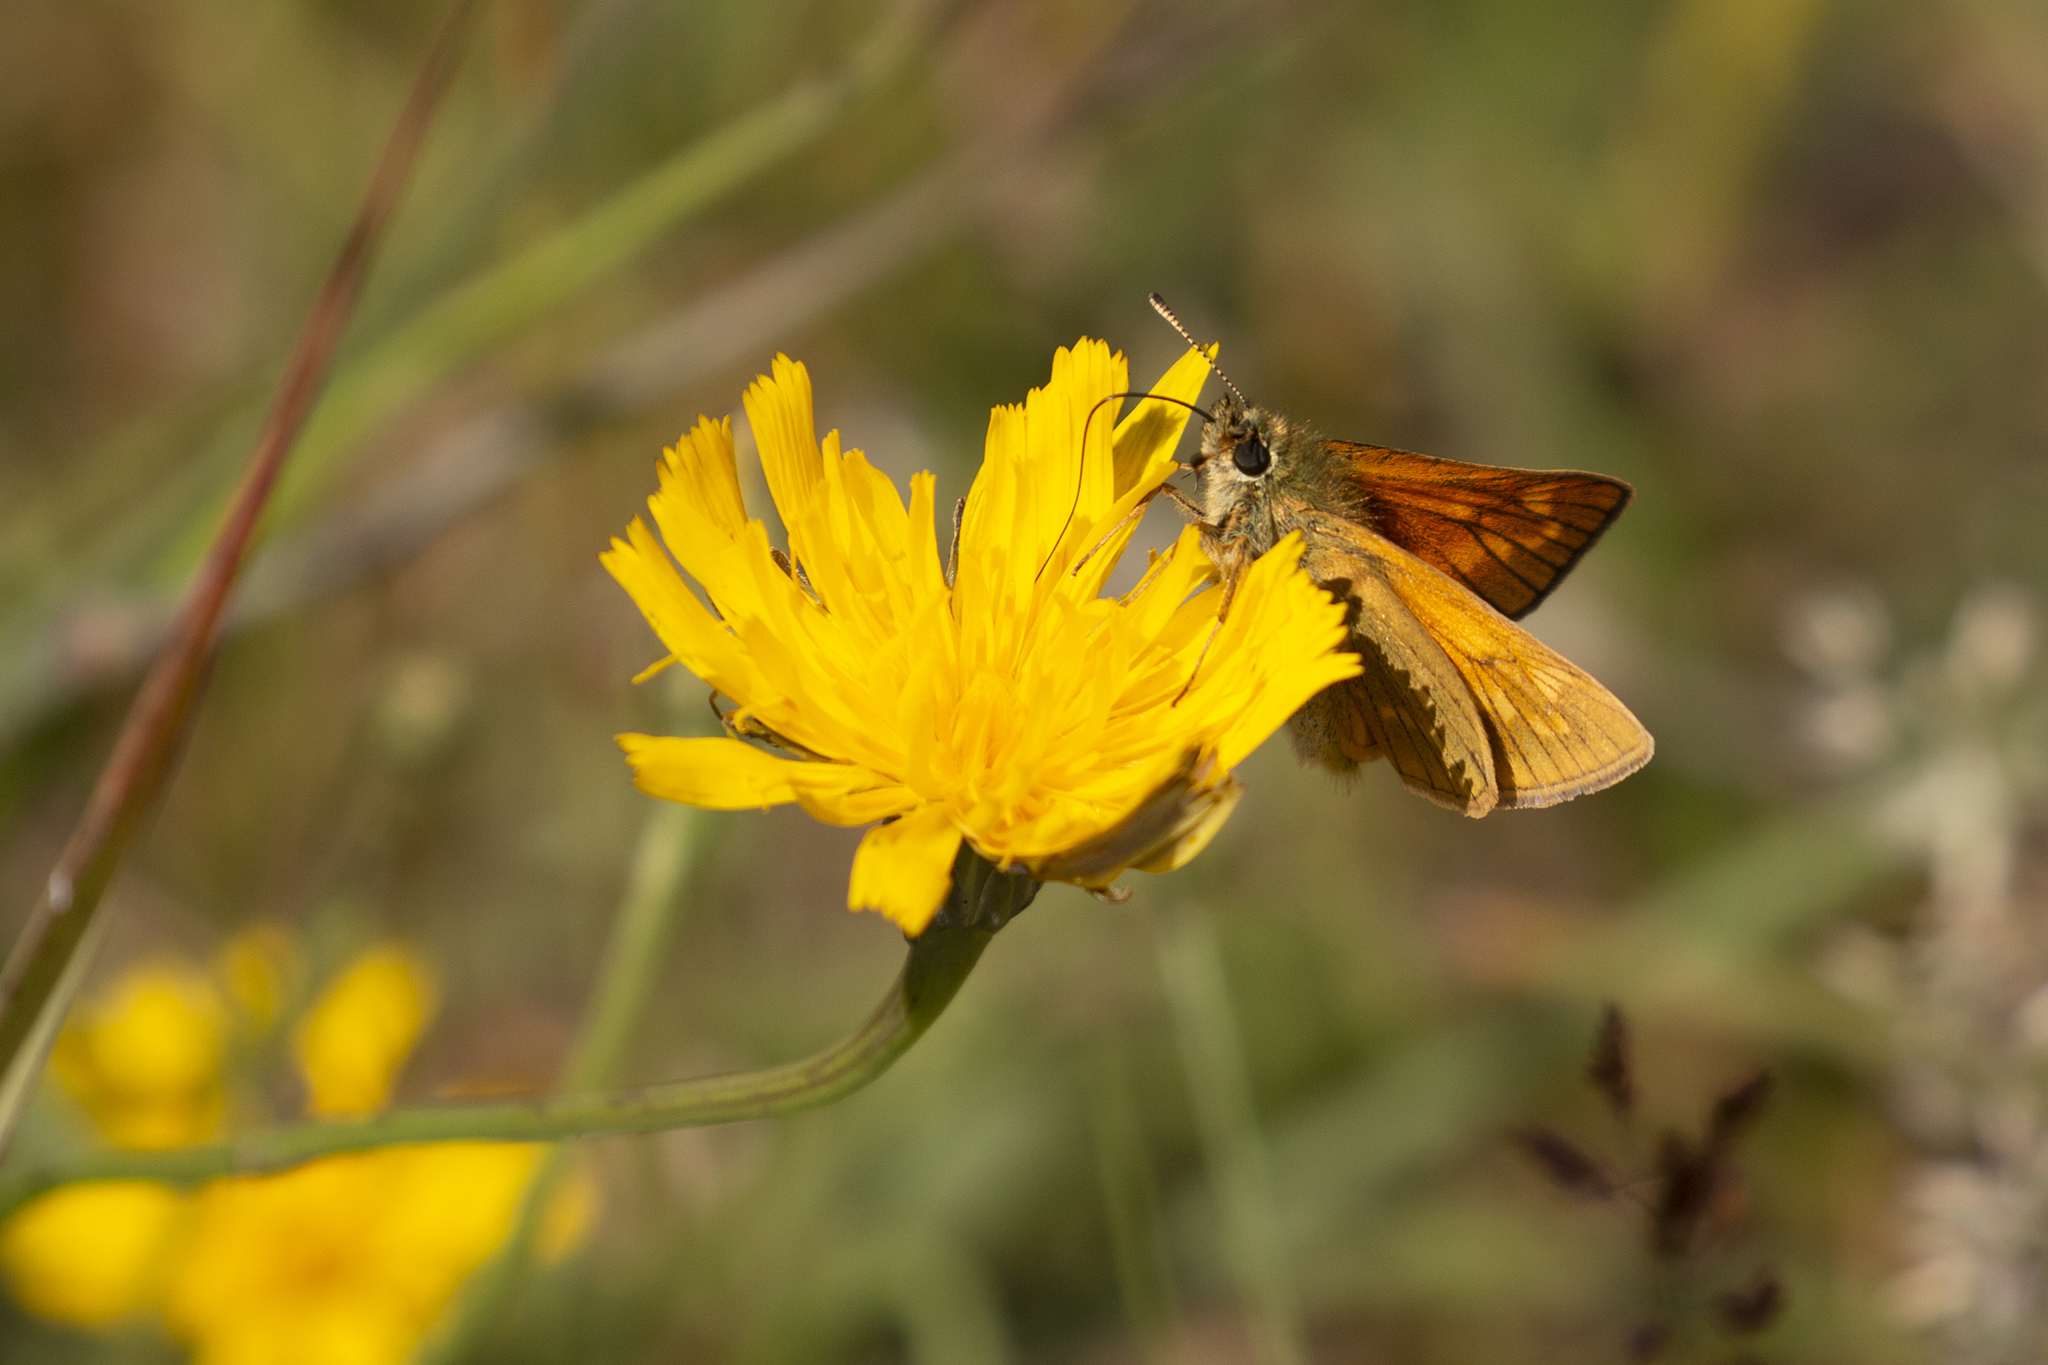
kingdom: Animalia
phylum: Arthropoda
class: Insecta
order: Lepidoptera
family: Hesperiidae
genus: Ochlodes
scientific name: Ochlodes venata
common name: Large skipper
